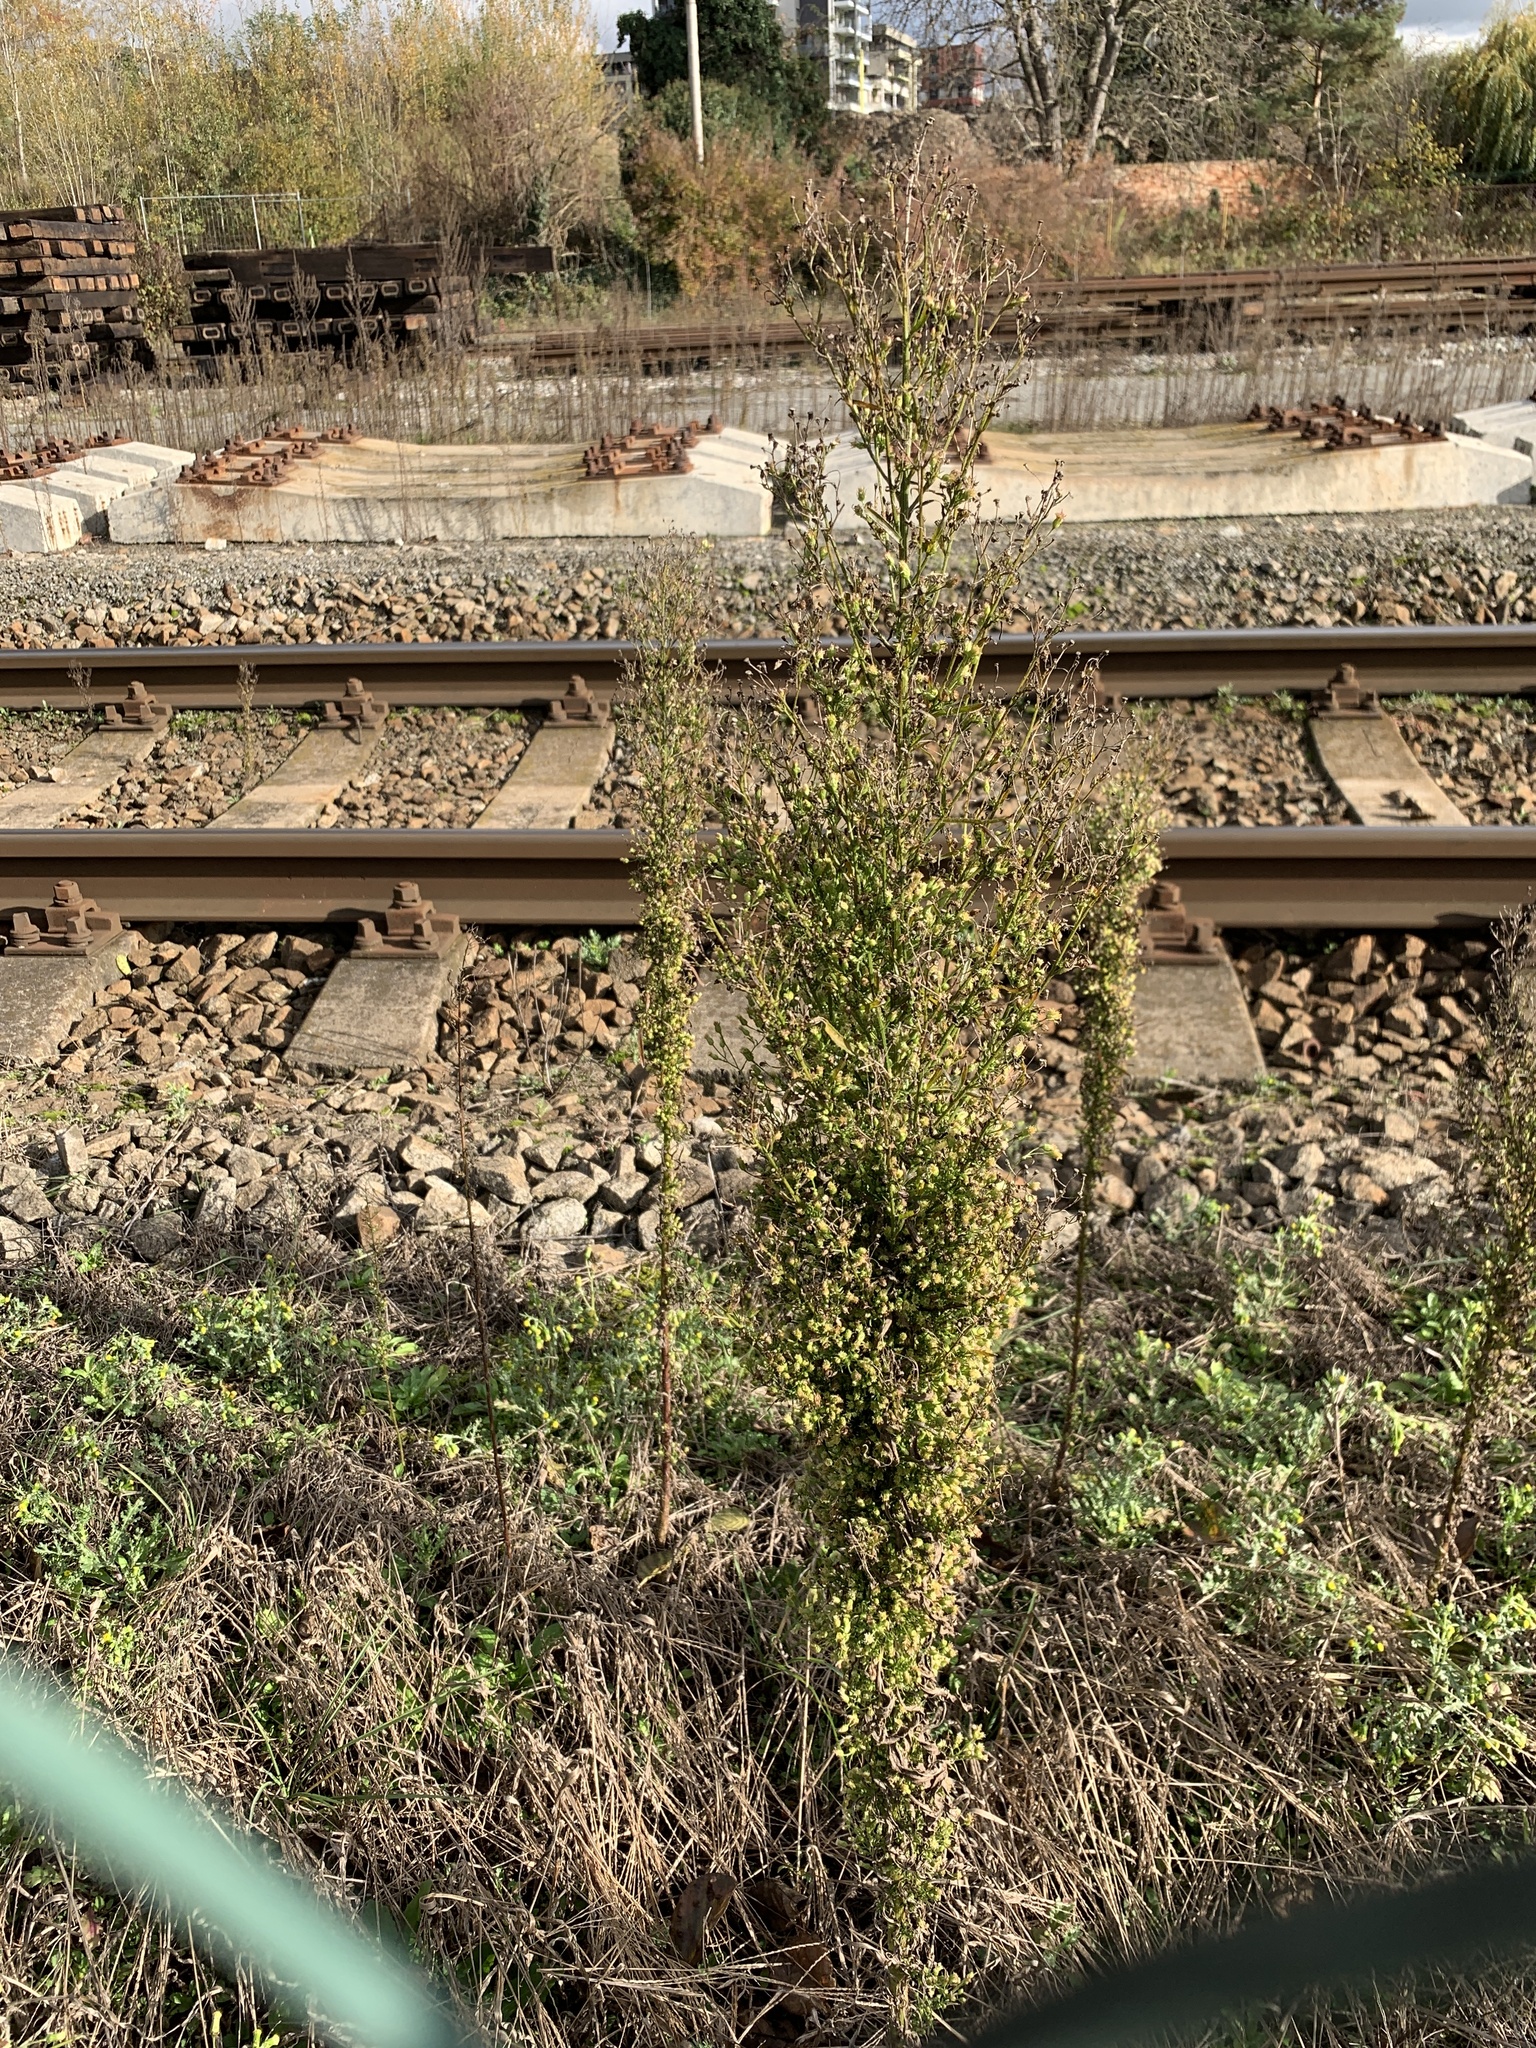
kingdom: Plantae
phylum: Tracheophyta
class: Magnoliopsida
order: Asterales
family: Asteraceae
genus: Erigeron
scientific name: Erigeron canadensis
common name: Canadian fleabane
